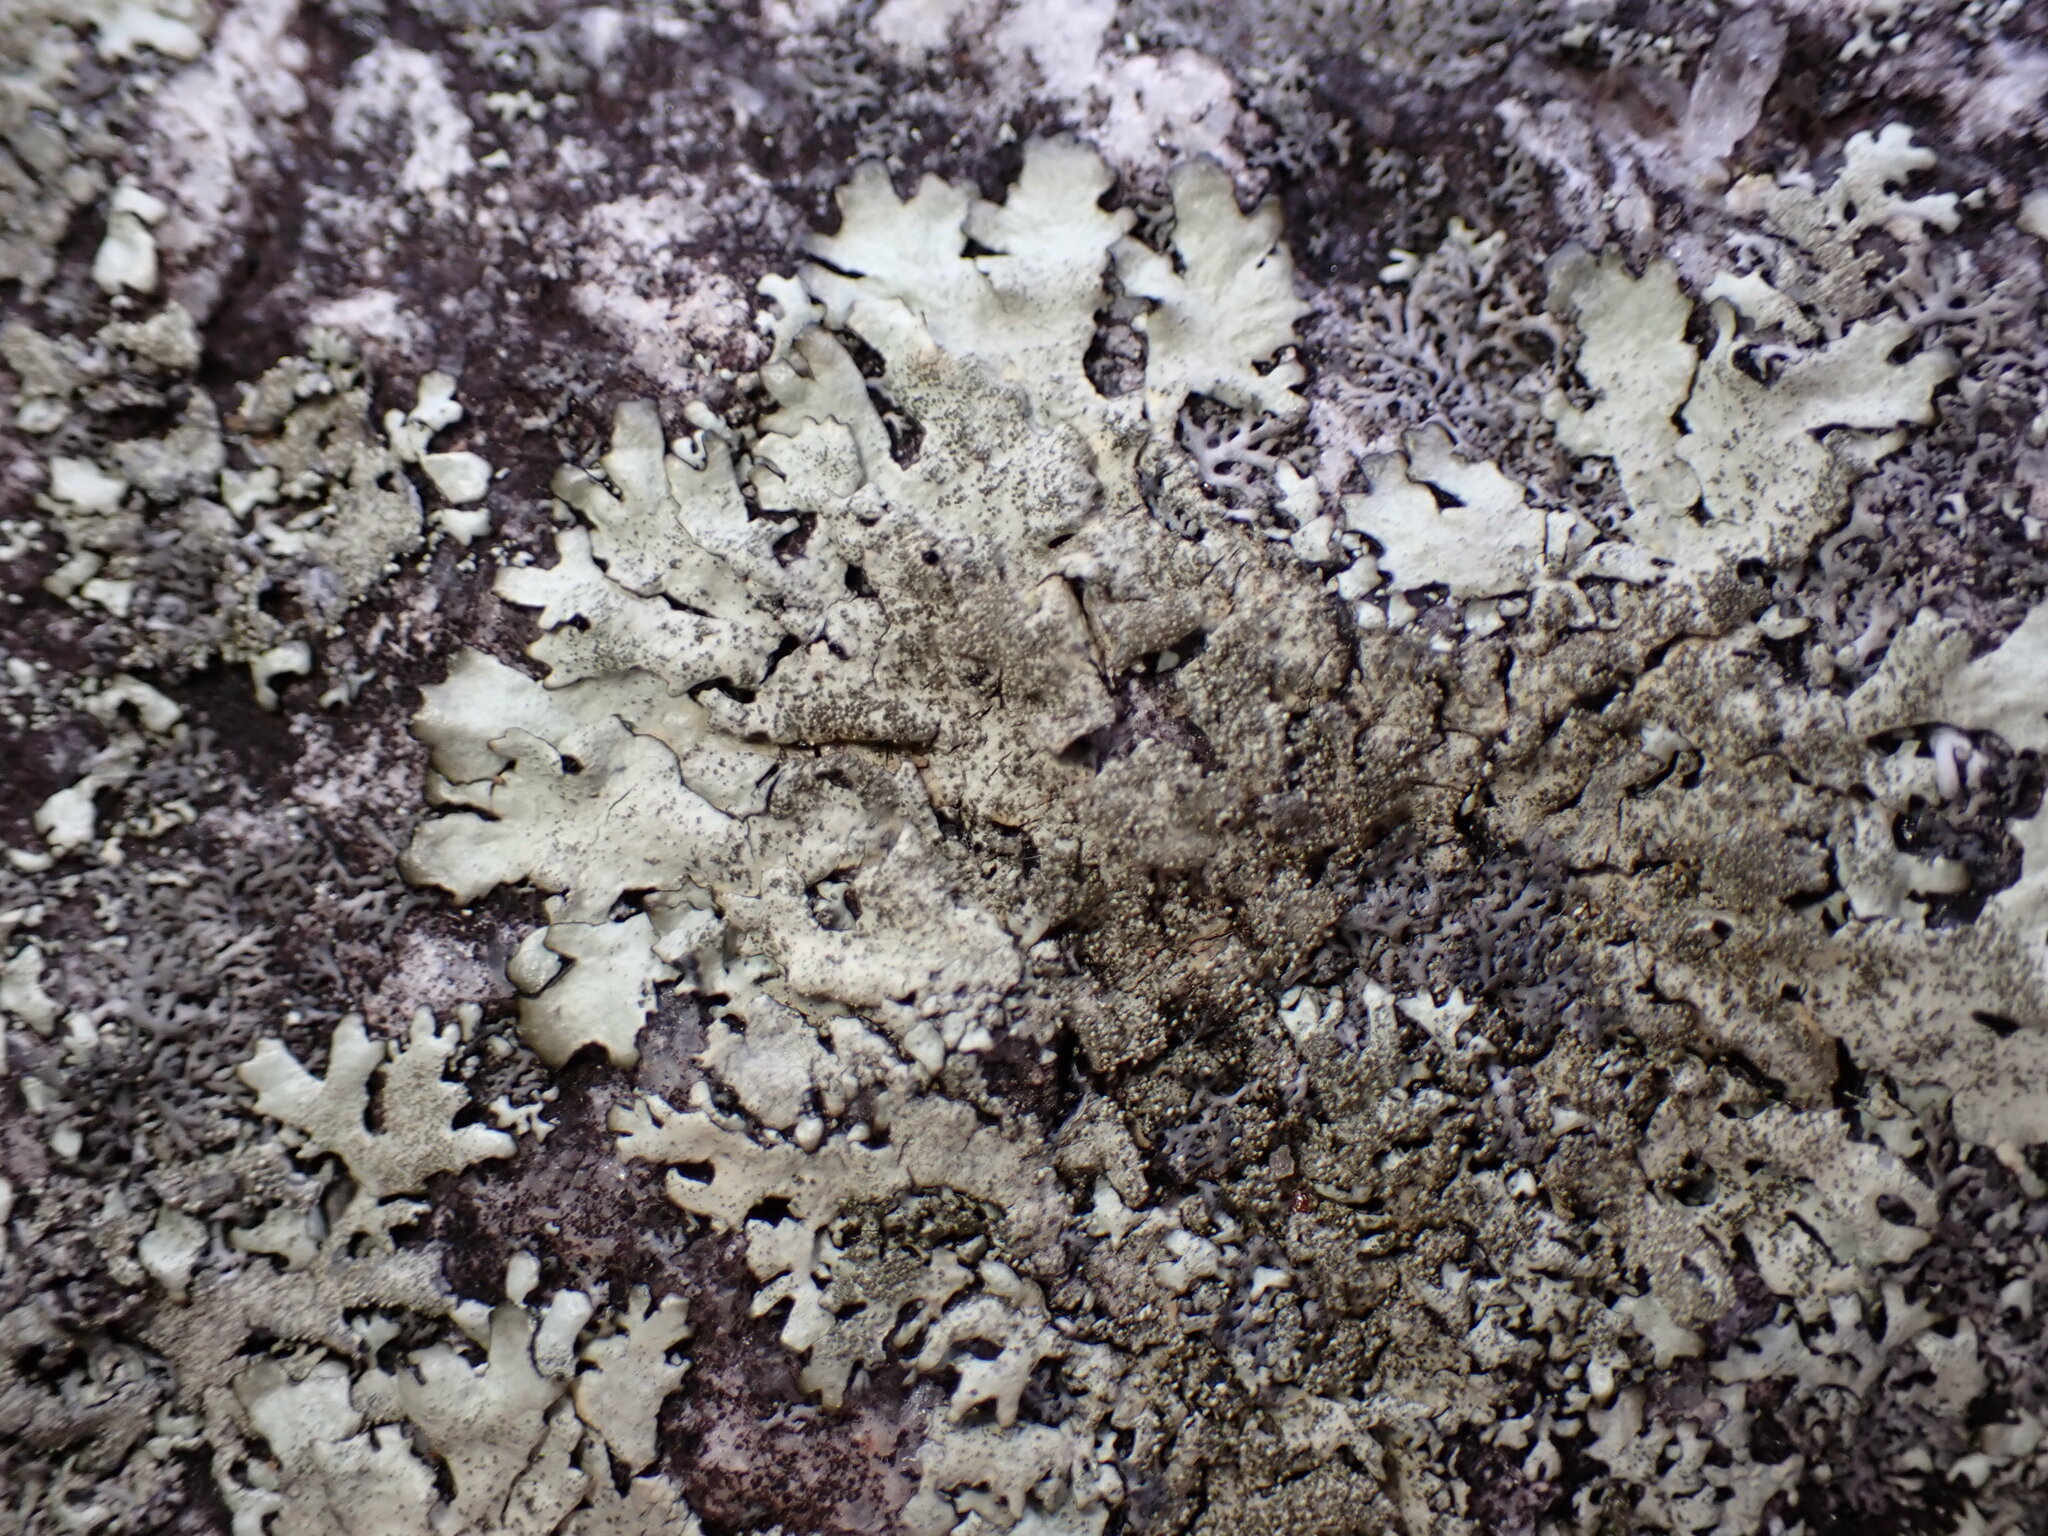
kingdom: Fungi
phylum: Ascomycota
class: Lecanoromycetes
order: Lecanorales
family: Parmeliaceae
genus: Xanthoparmelia
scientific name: Xanthoparmelia plittii
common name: Plitt's rock shield
